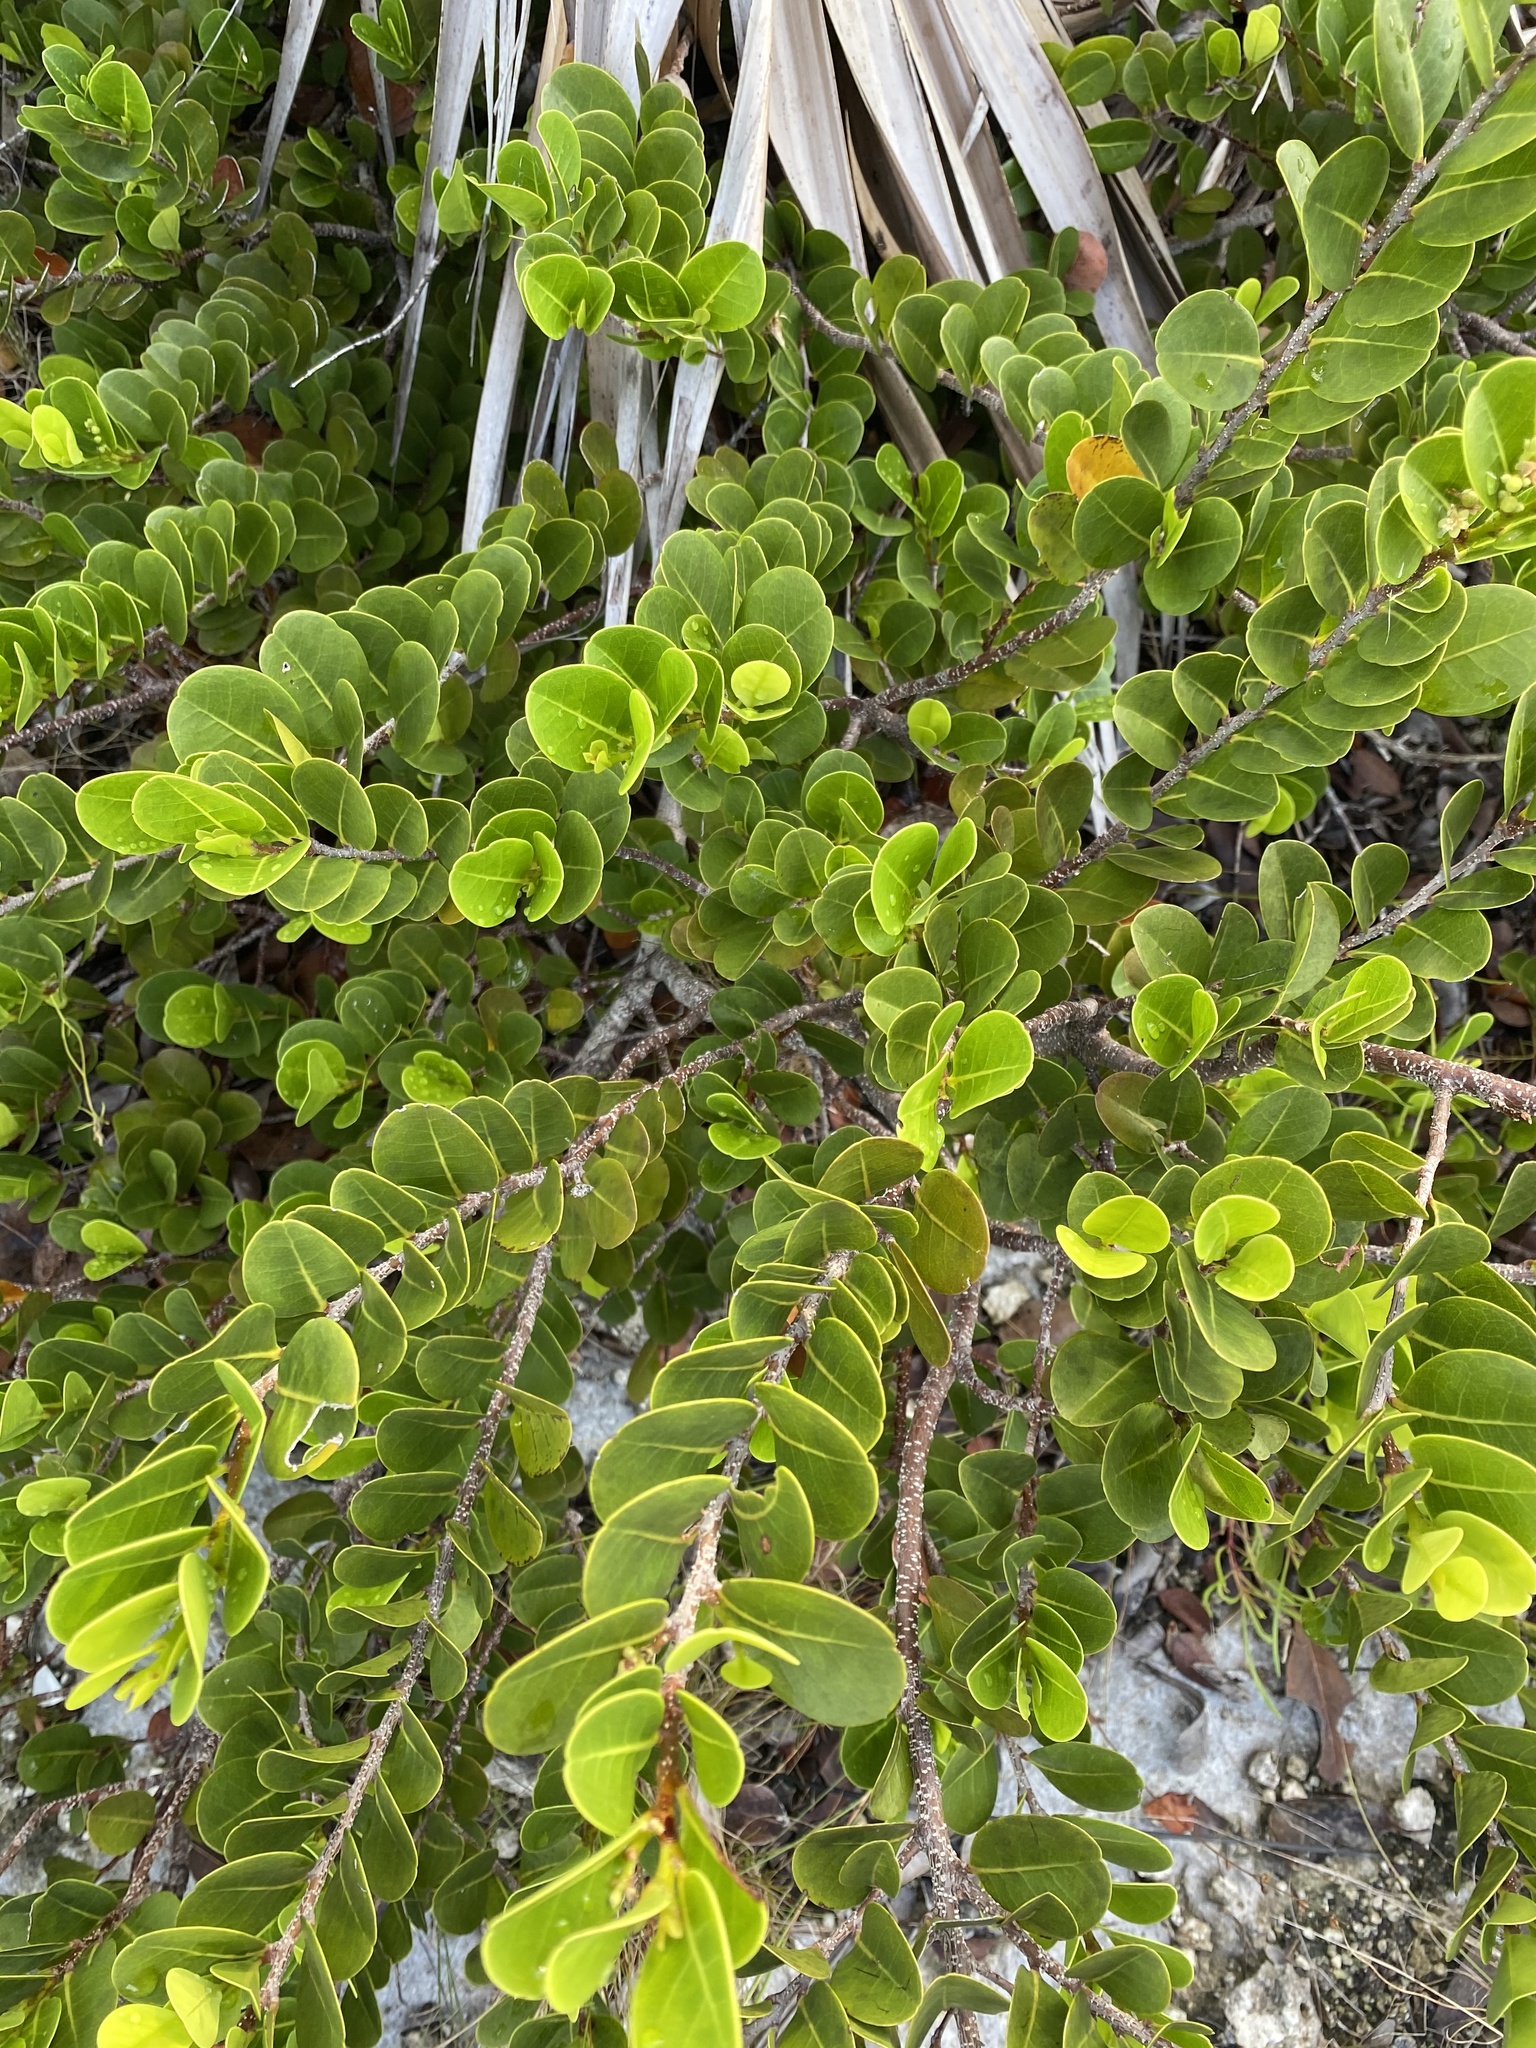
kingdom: Plantae
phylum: Tracheophyta
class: Magnoliopsida
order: Malpighiales
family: Chrysobalanaceae
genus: Chrysobalanus
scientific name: Chrysobalanus icaco
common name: Coco plum
